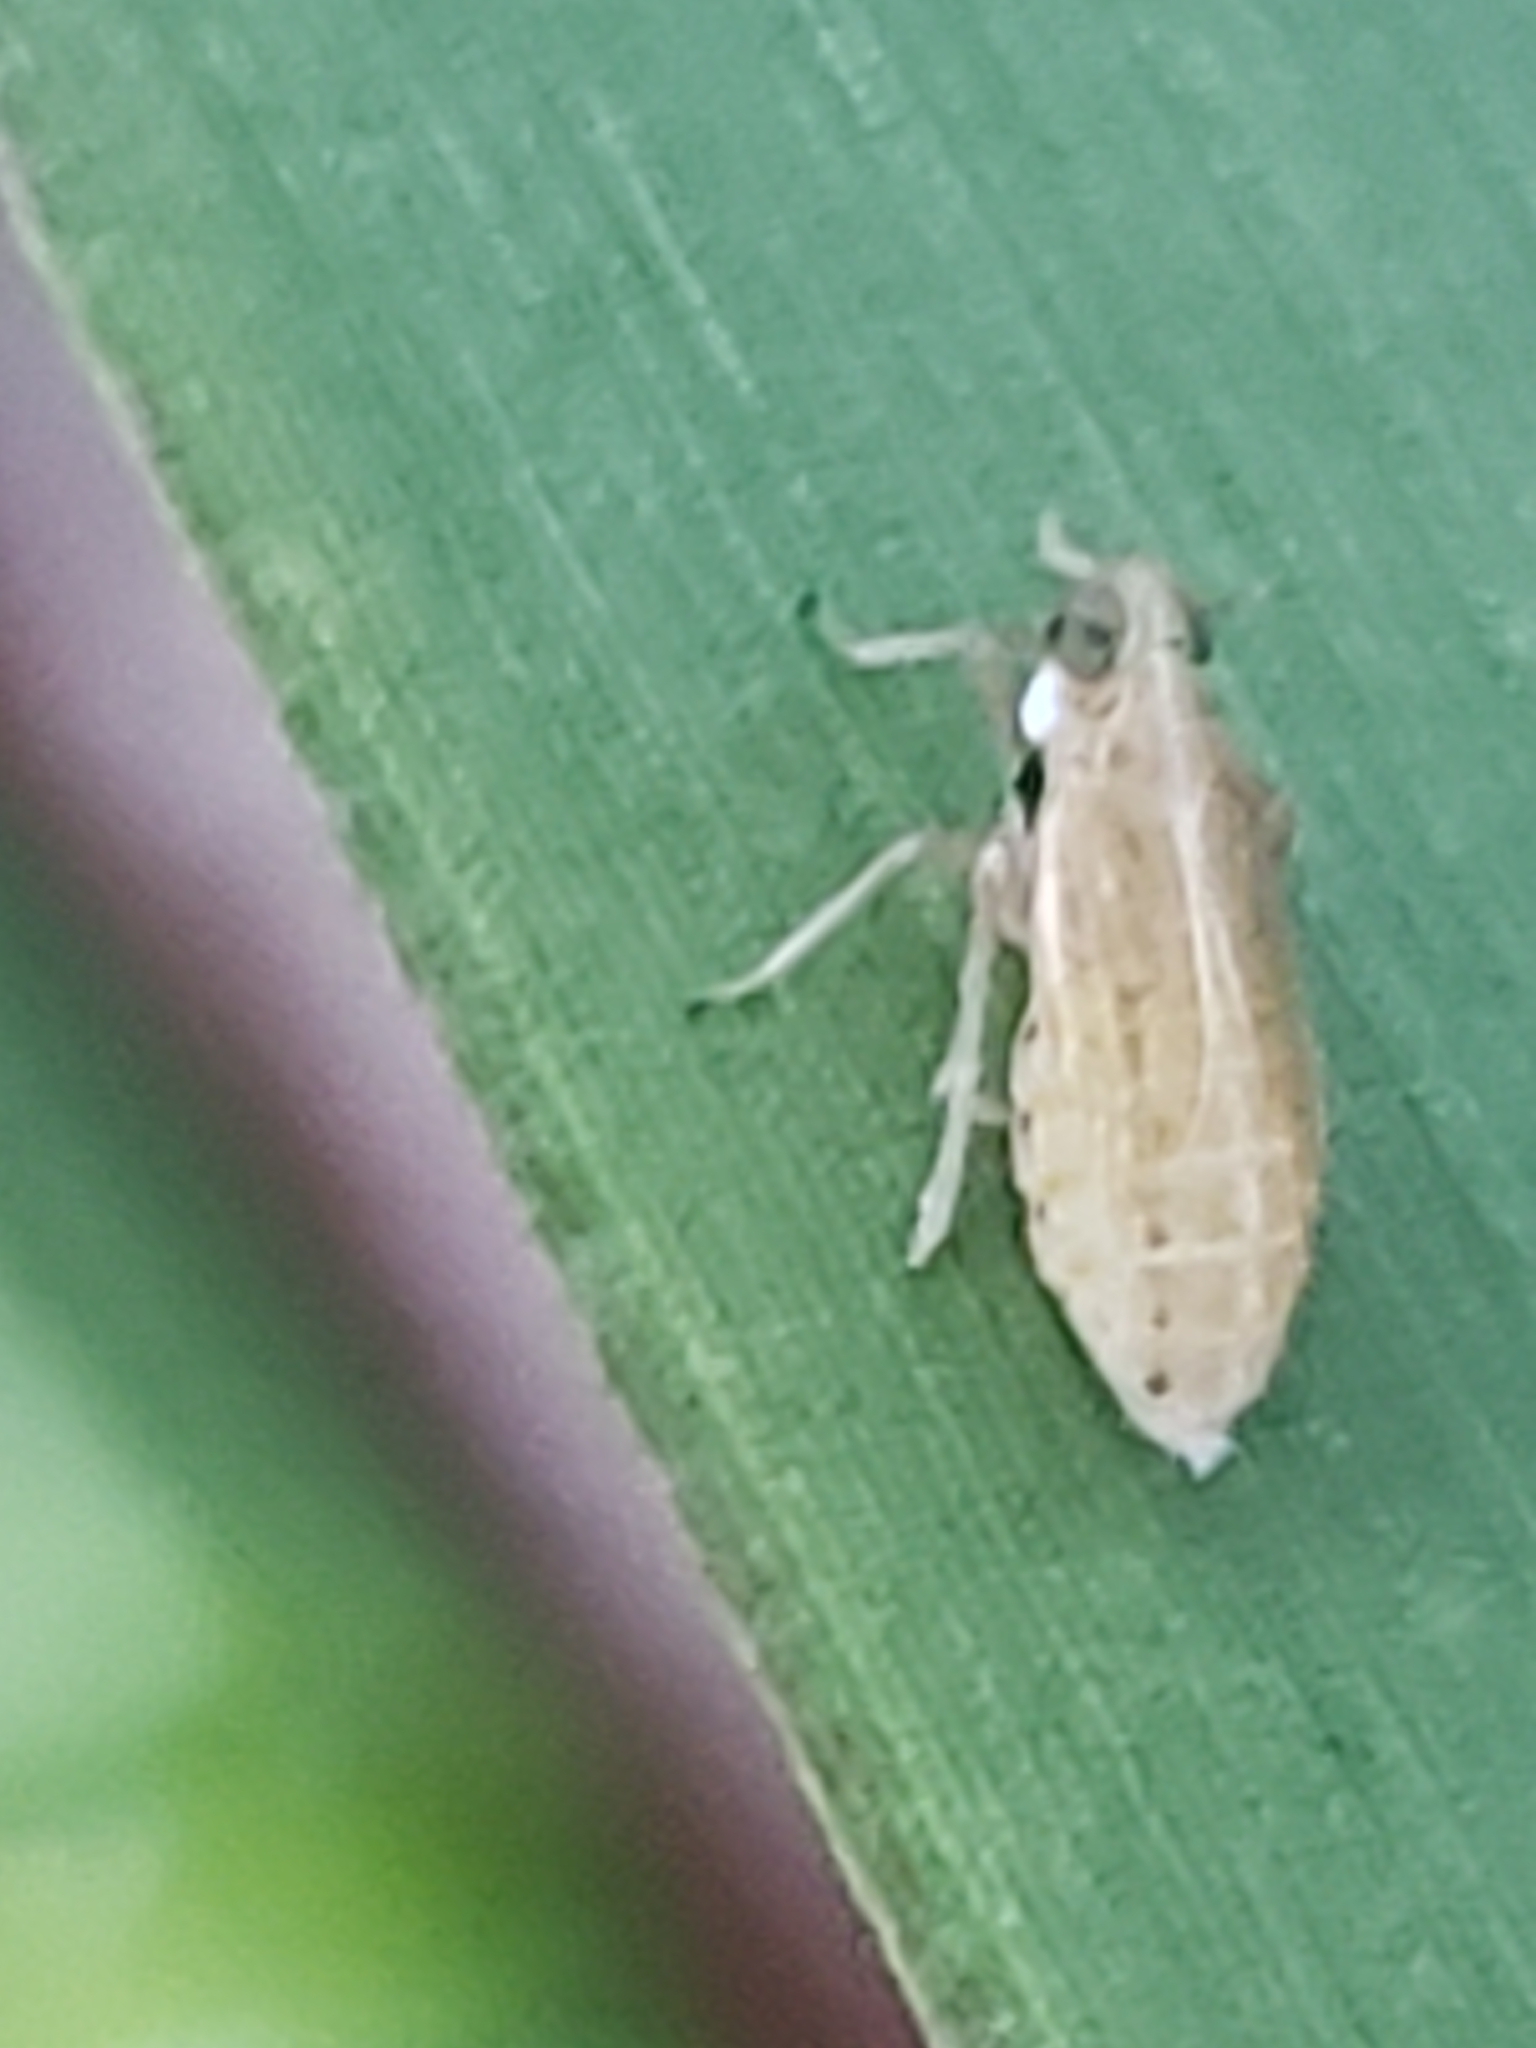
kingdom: Animalia
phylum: Arthropoda
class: Insecta
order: Hemiptera
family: Delphacidae
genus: Delphacodes
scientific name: Delphacodes shermani
